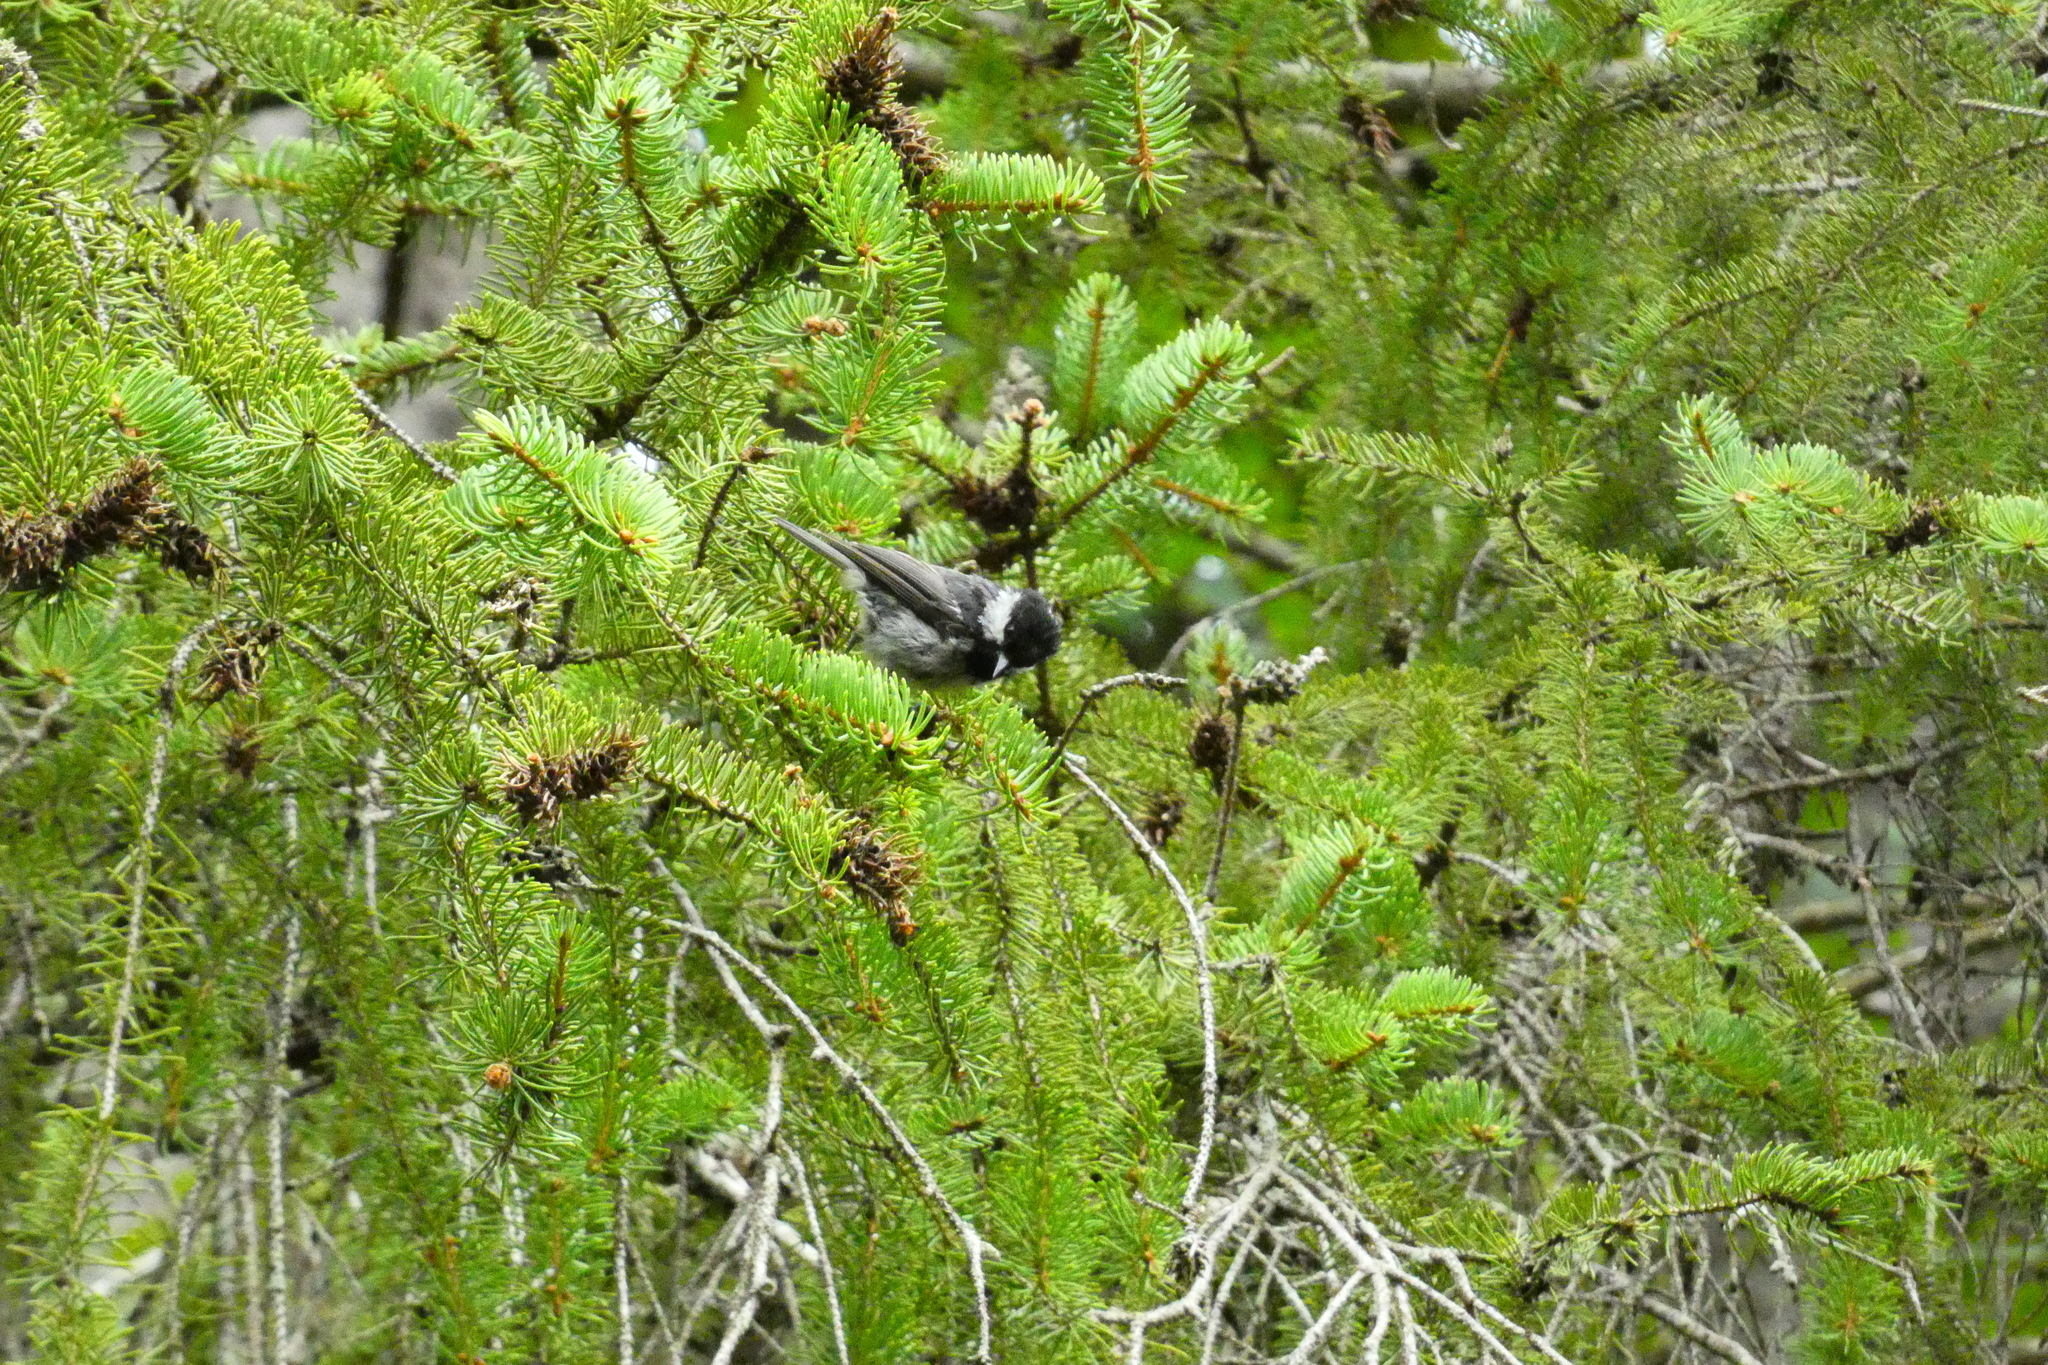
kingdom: Animalia
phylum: Chordata
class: Aves
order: Passeriformes
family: Paridae
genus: Periparus
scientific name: Periparus ater
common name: Coal tit
